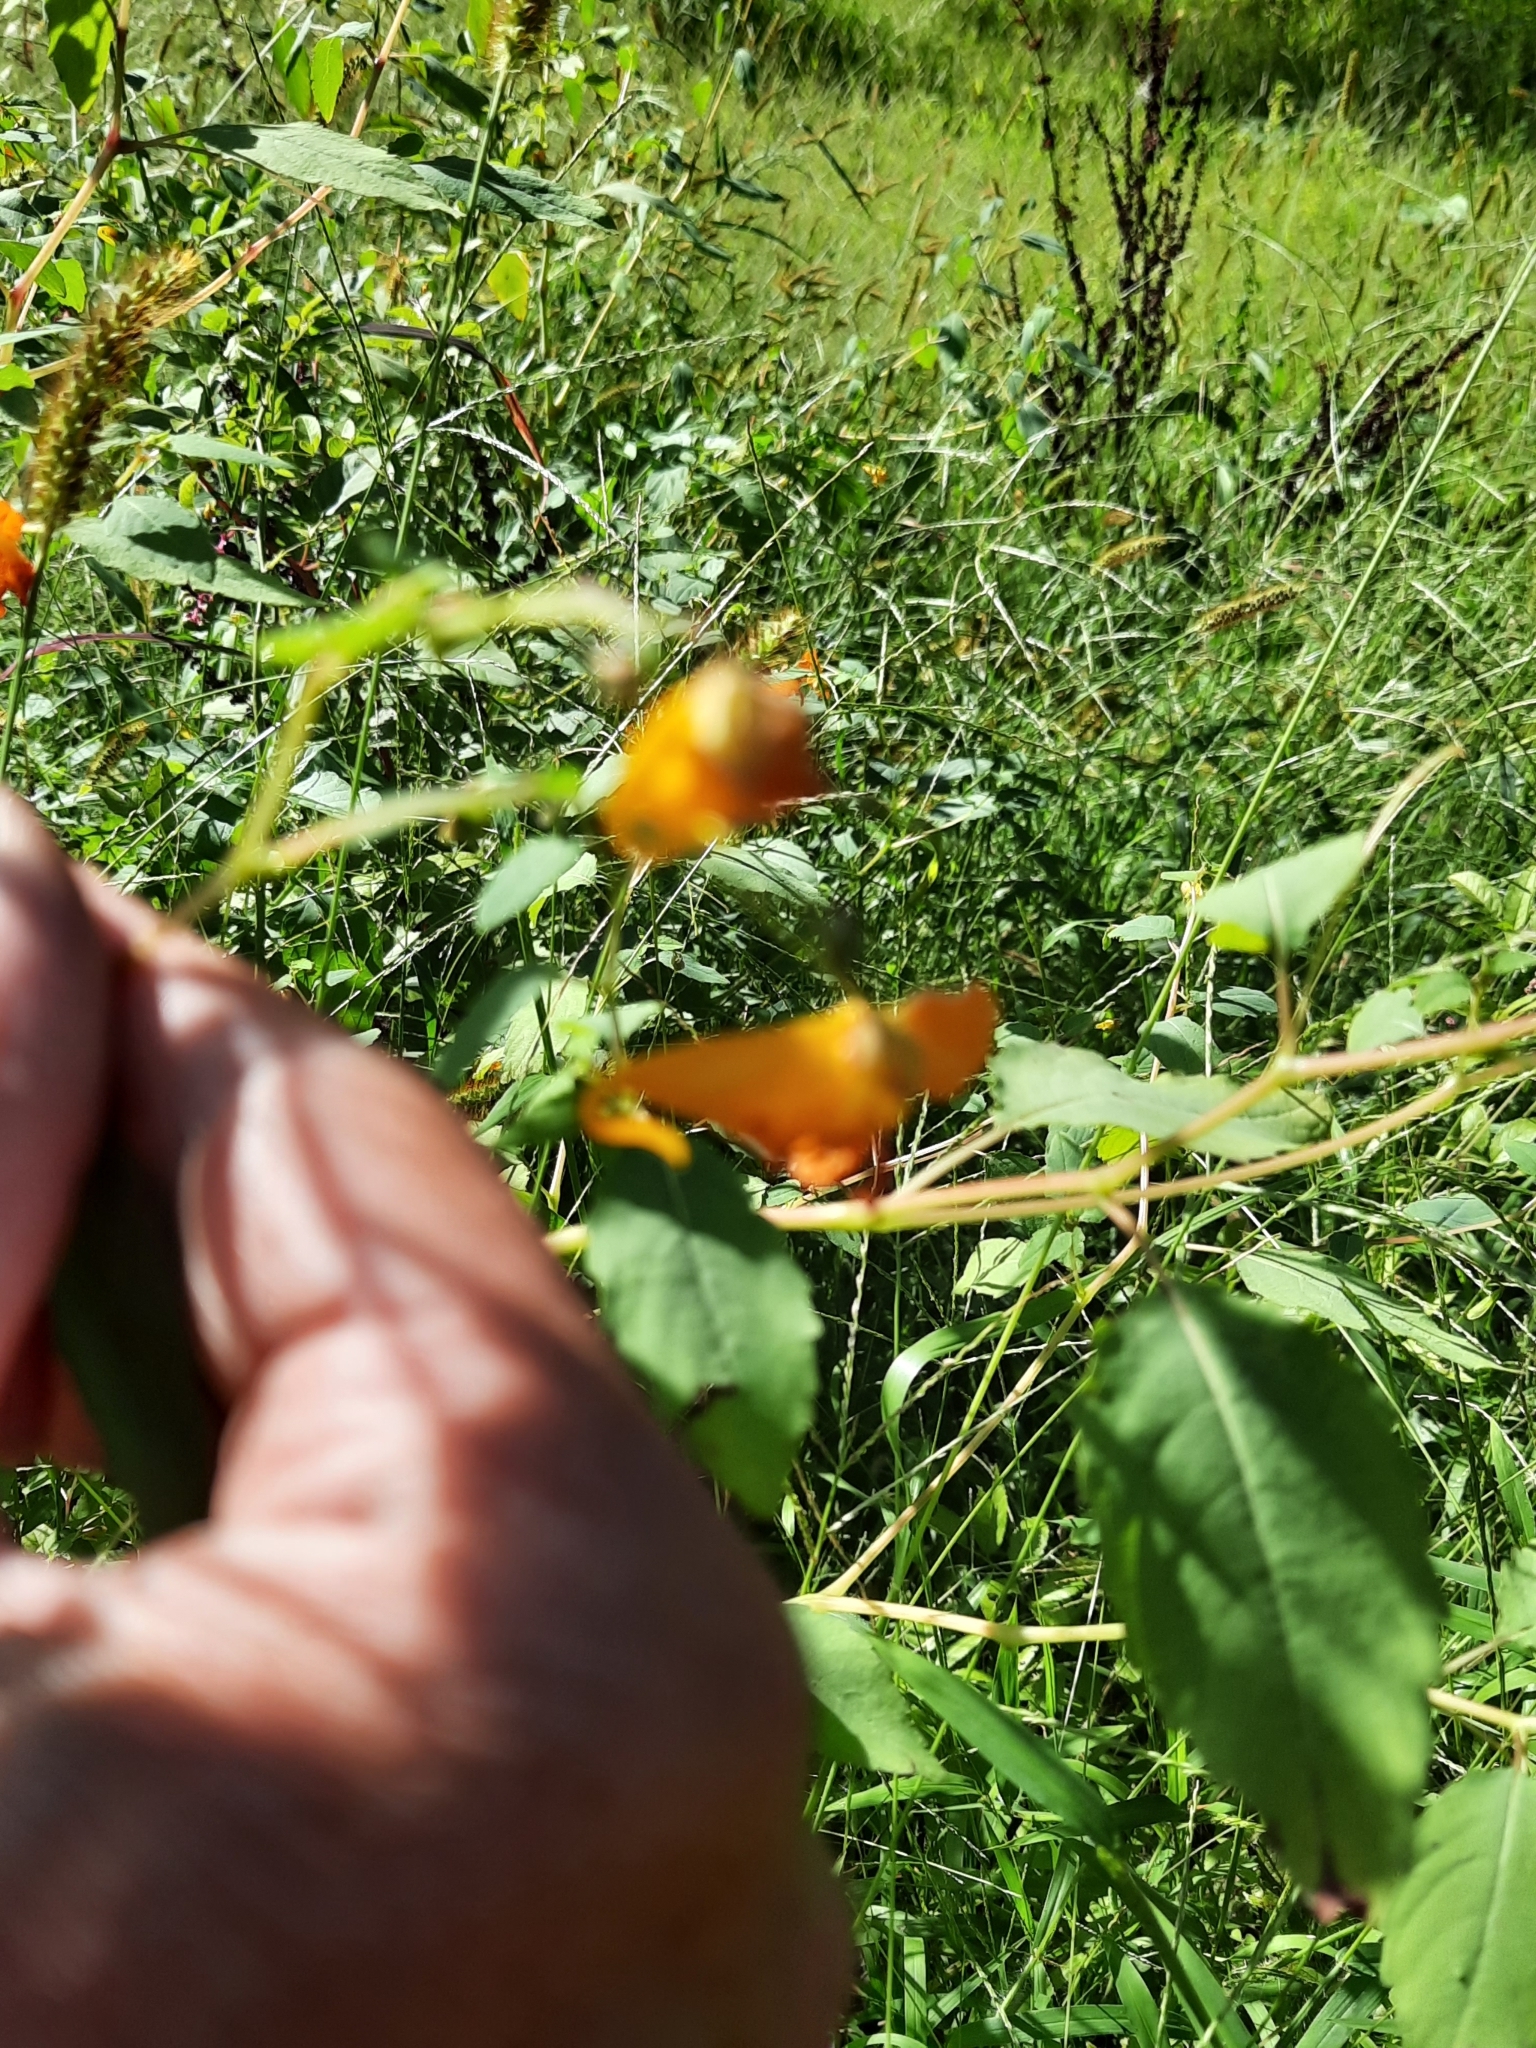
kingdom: Plantae
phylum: Tracheophyta
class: Magnoliopsida
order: Ericales
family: Balsaminaceae
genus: Impatiens
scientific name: Impatiens capensis
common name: Orange balsam
